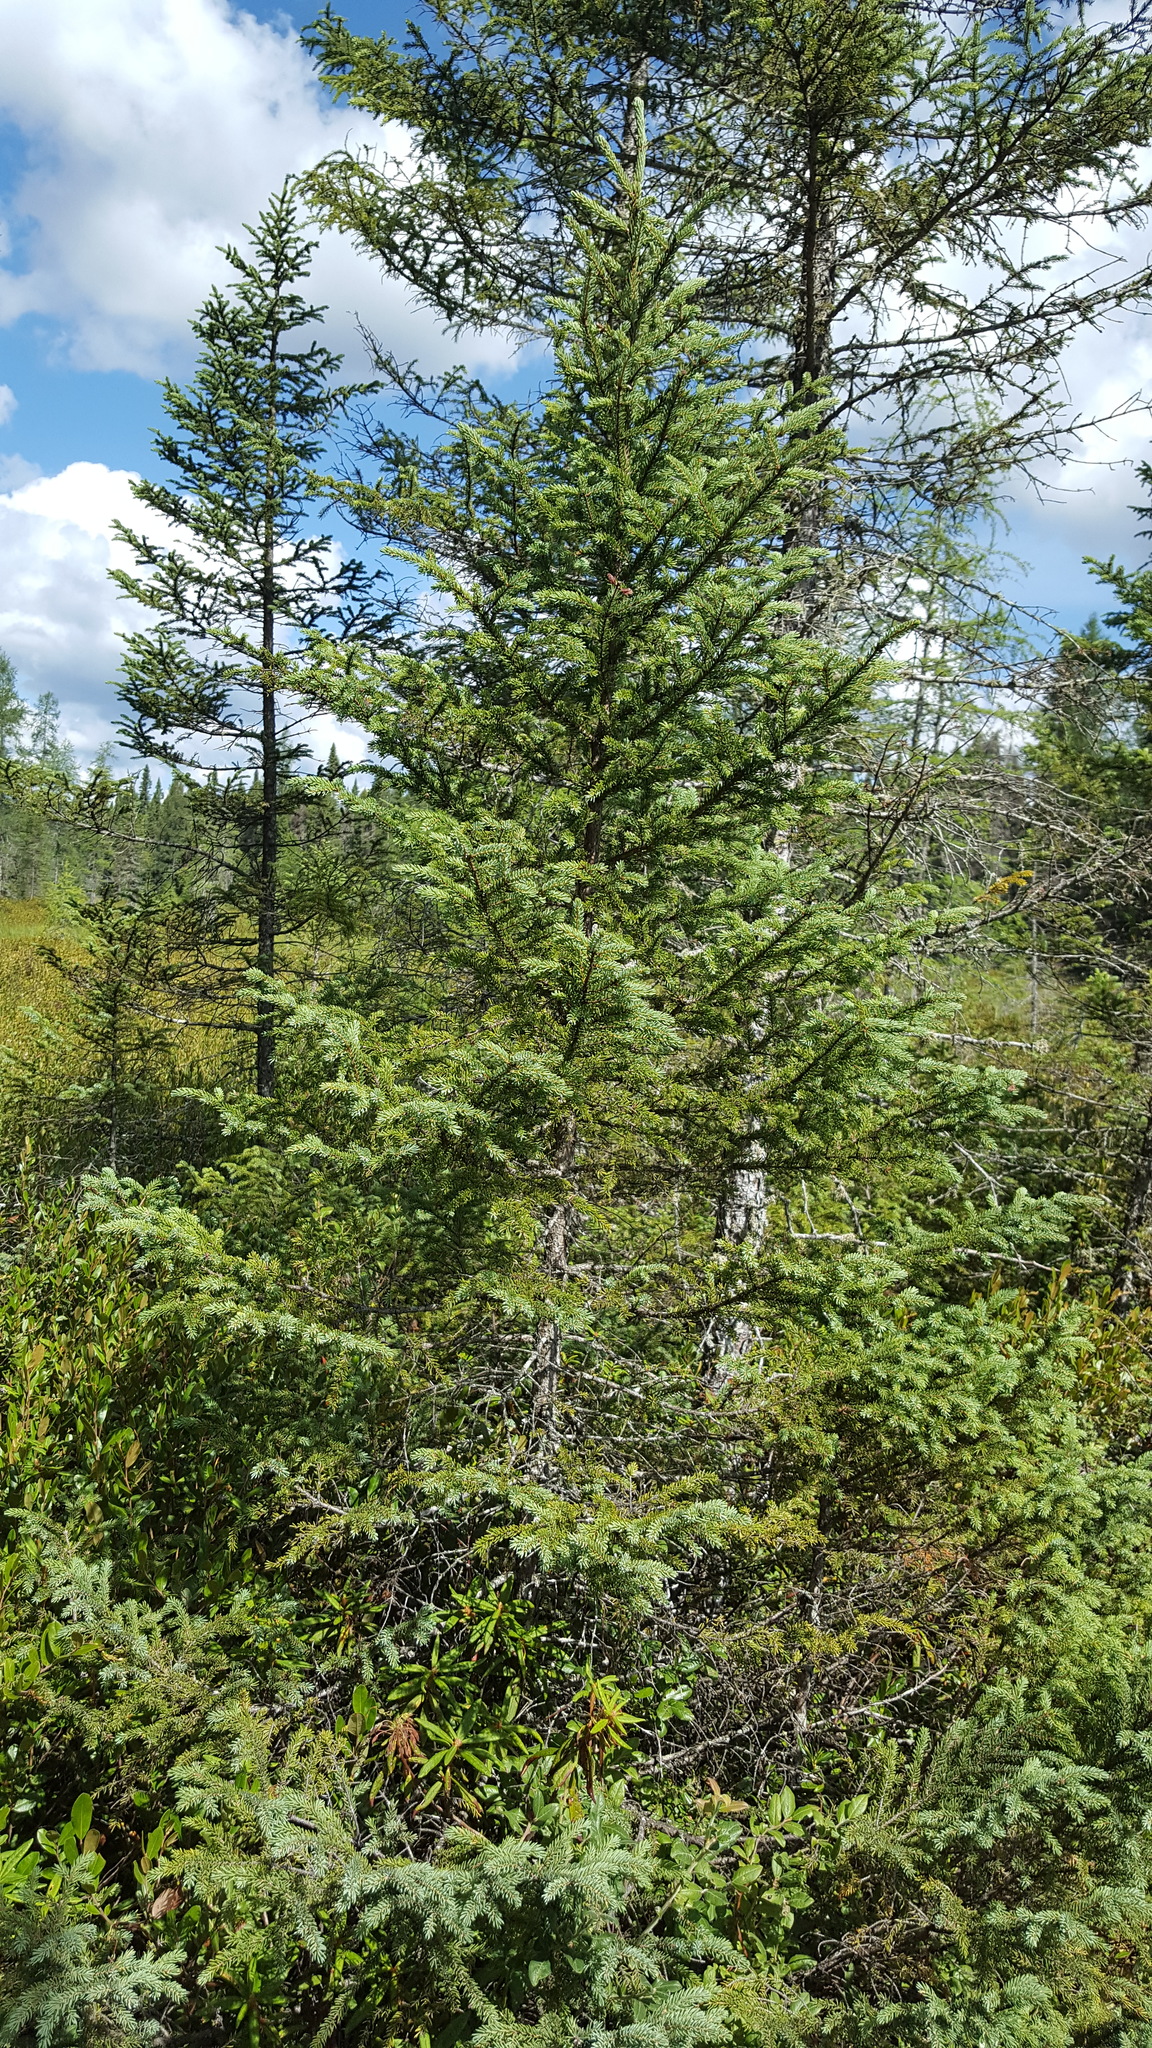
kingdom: Plantae
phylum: Tracheophyta
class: Pinopsida
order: Pinales
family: Pinaceae
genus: Picea
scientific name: Picea mariana
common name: Black spruce
